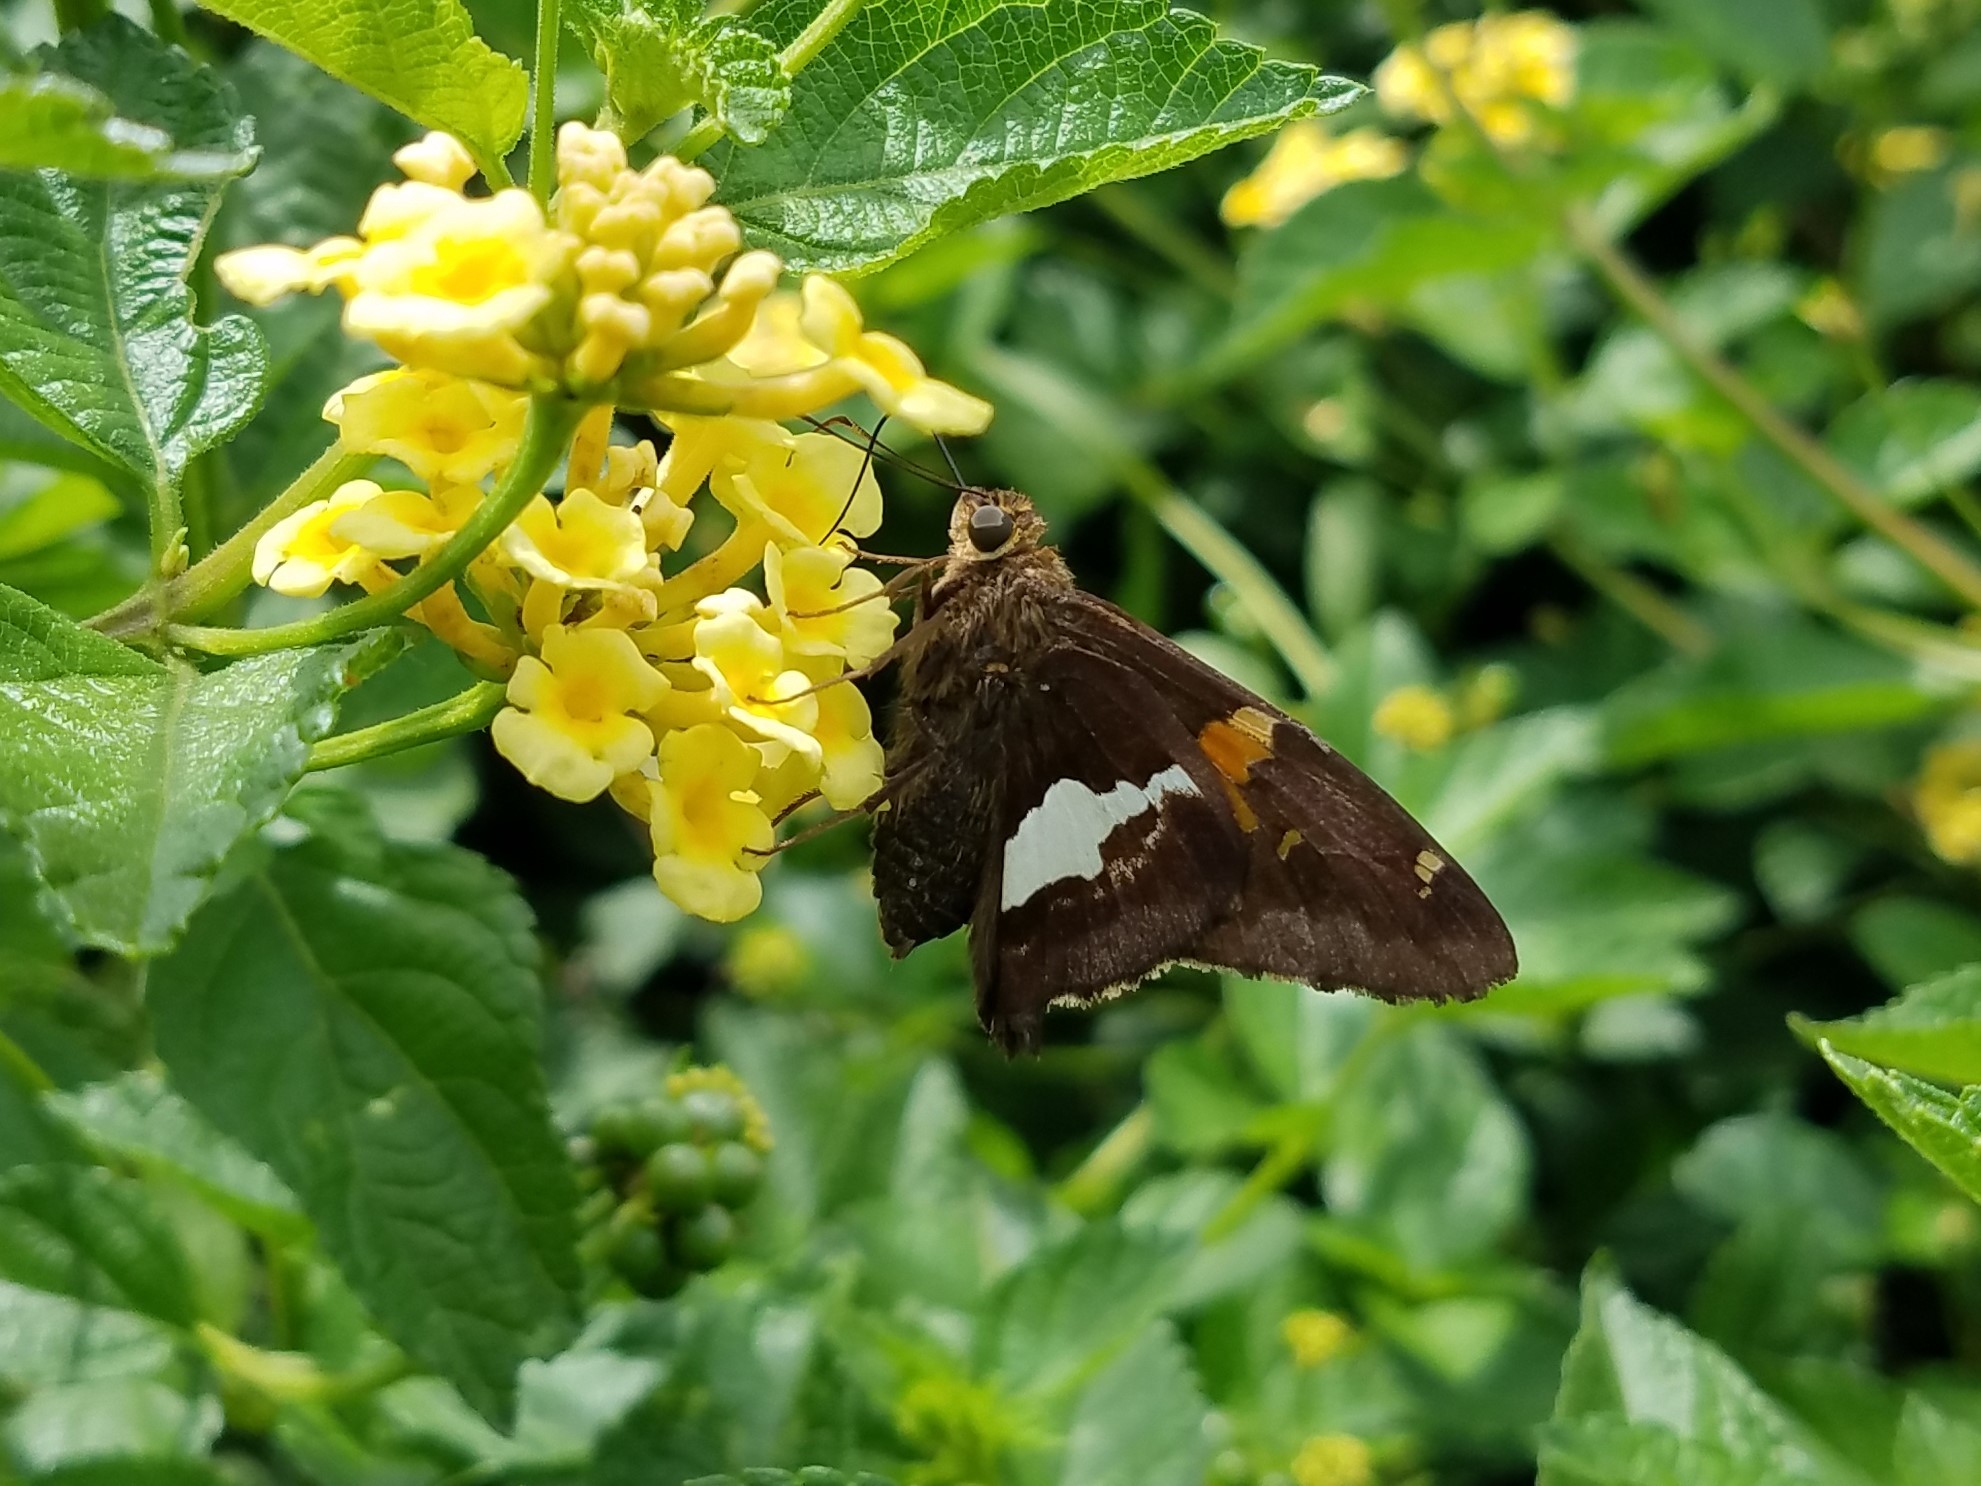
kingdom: Animalia
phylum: Arthropoda
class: Insecta
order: Lepidoptera
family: Hesperiidae
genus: Epargyreus
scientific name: Epargyreus clarus
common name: Silver-spotted skipper
